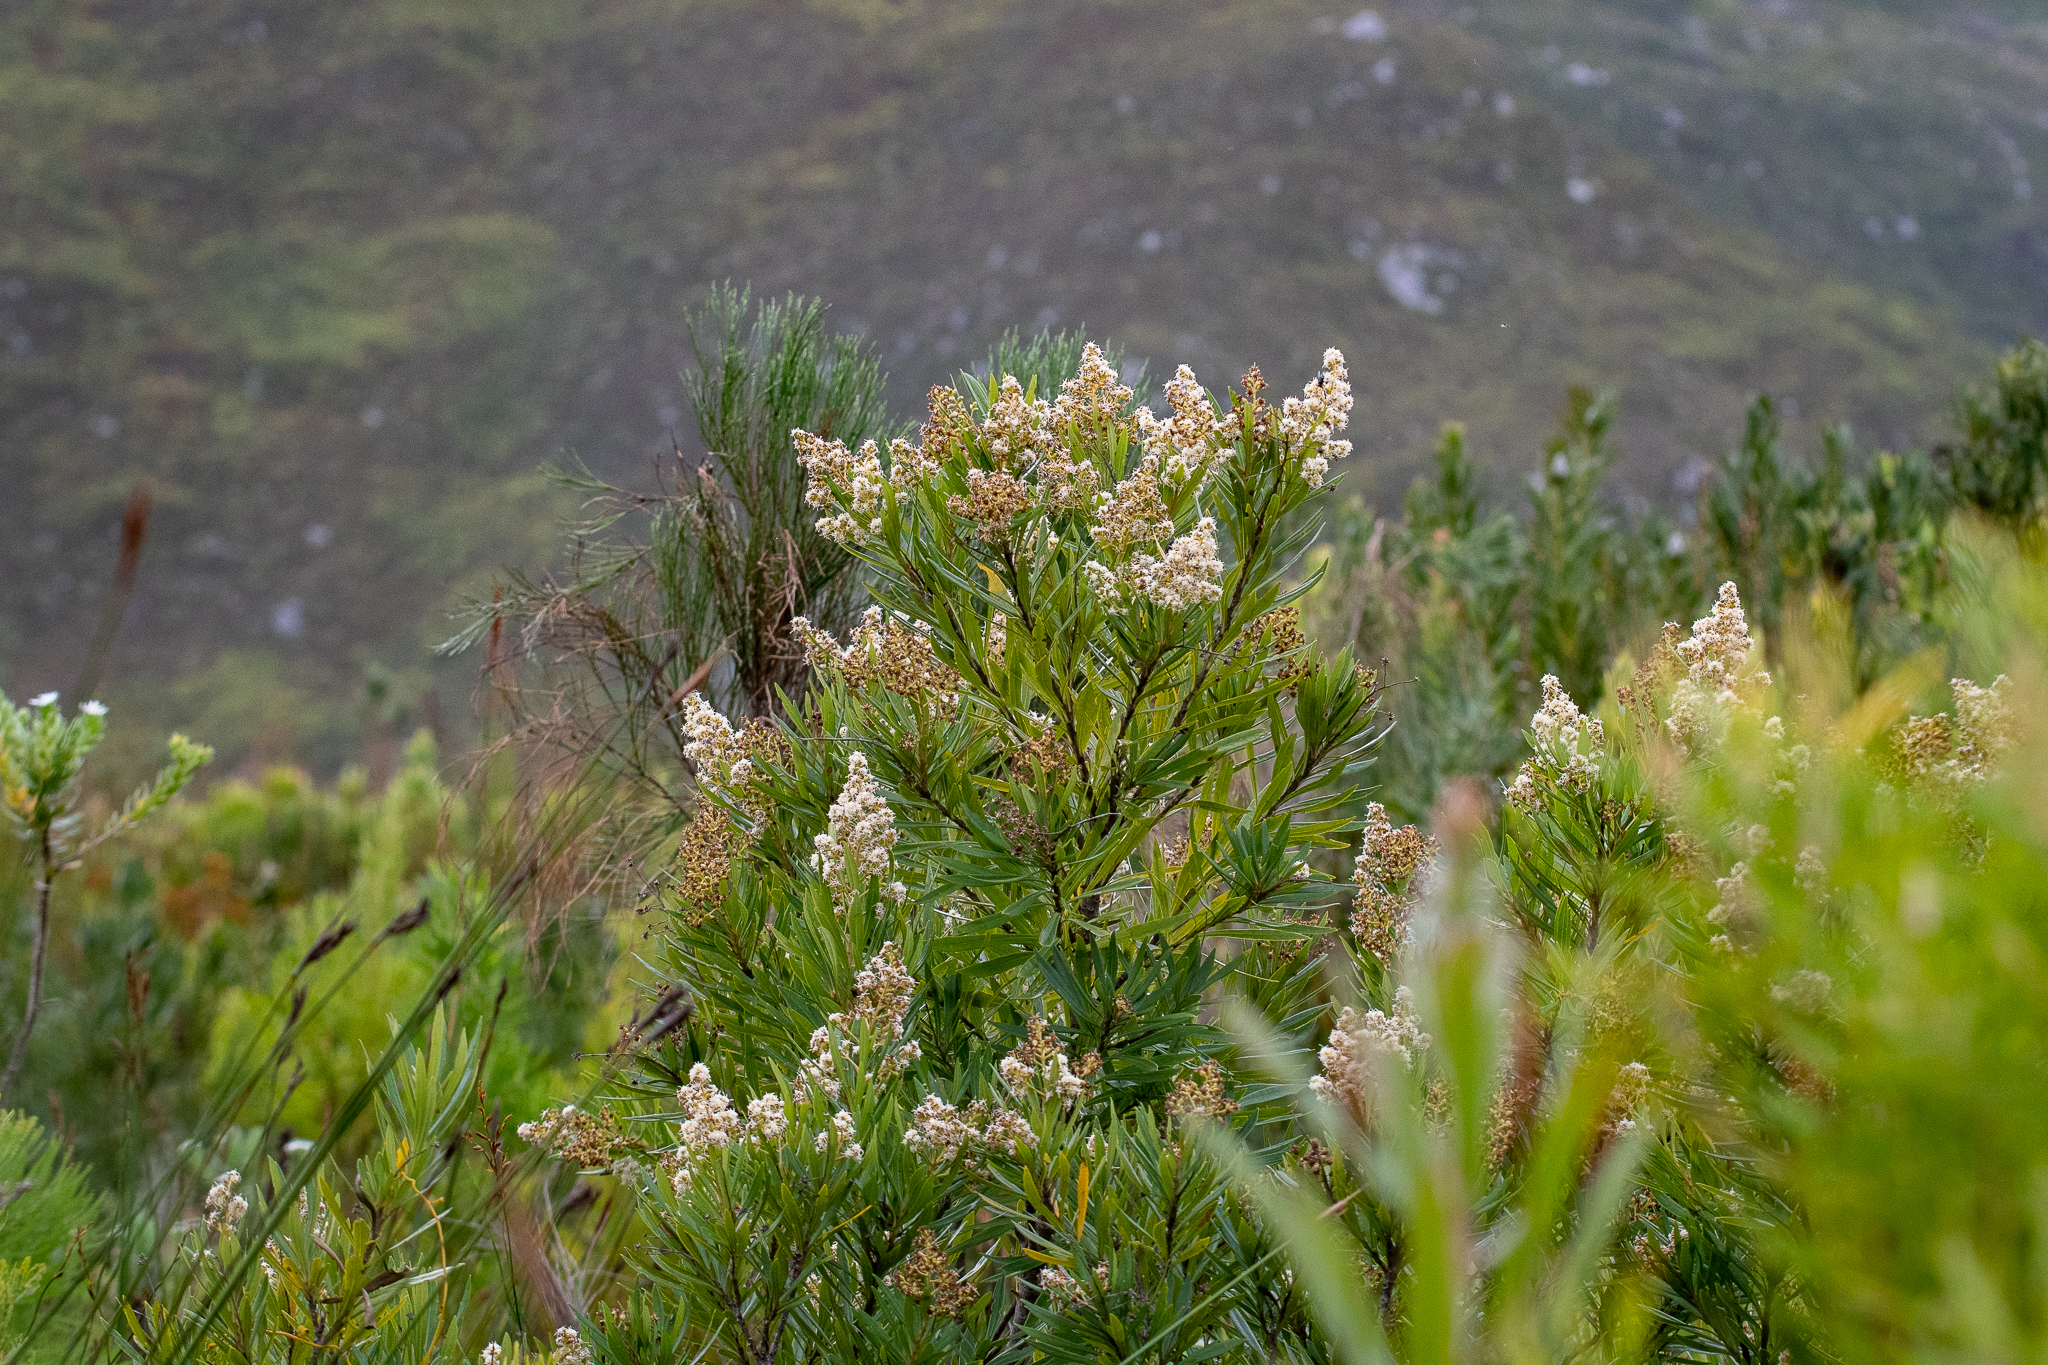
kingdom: Plantae
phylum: Tracheophyta
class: Magnoliopsida
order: Asterales
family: Asteraceae
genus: Brachylaena
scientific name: Brachylaena neriifolia
